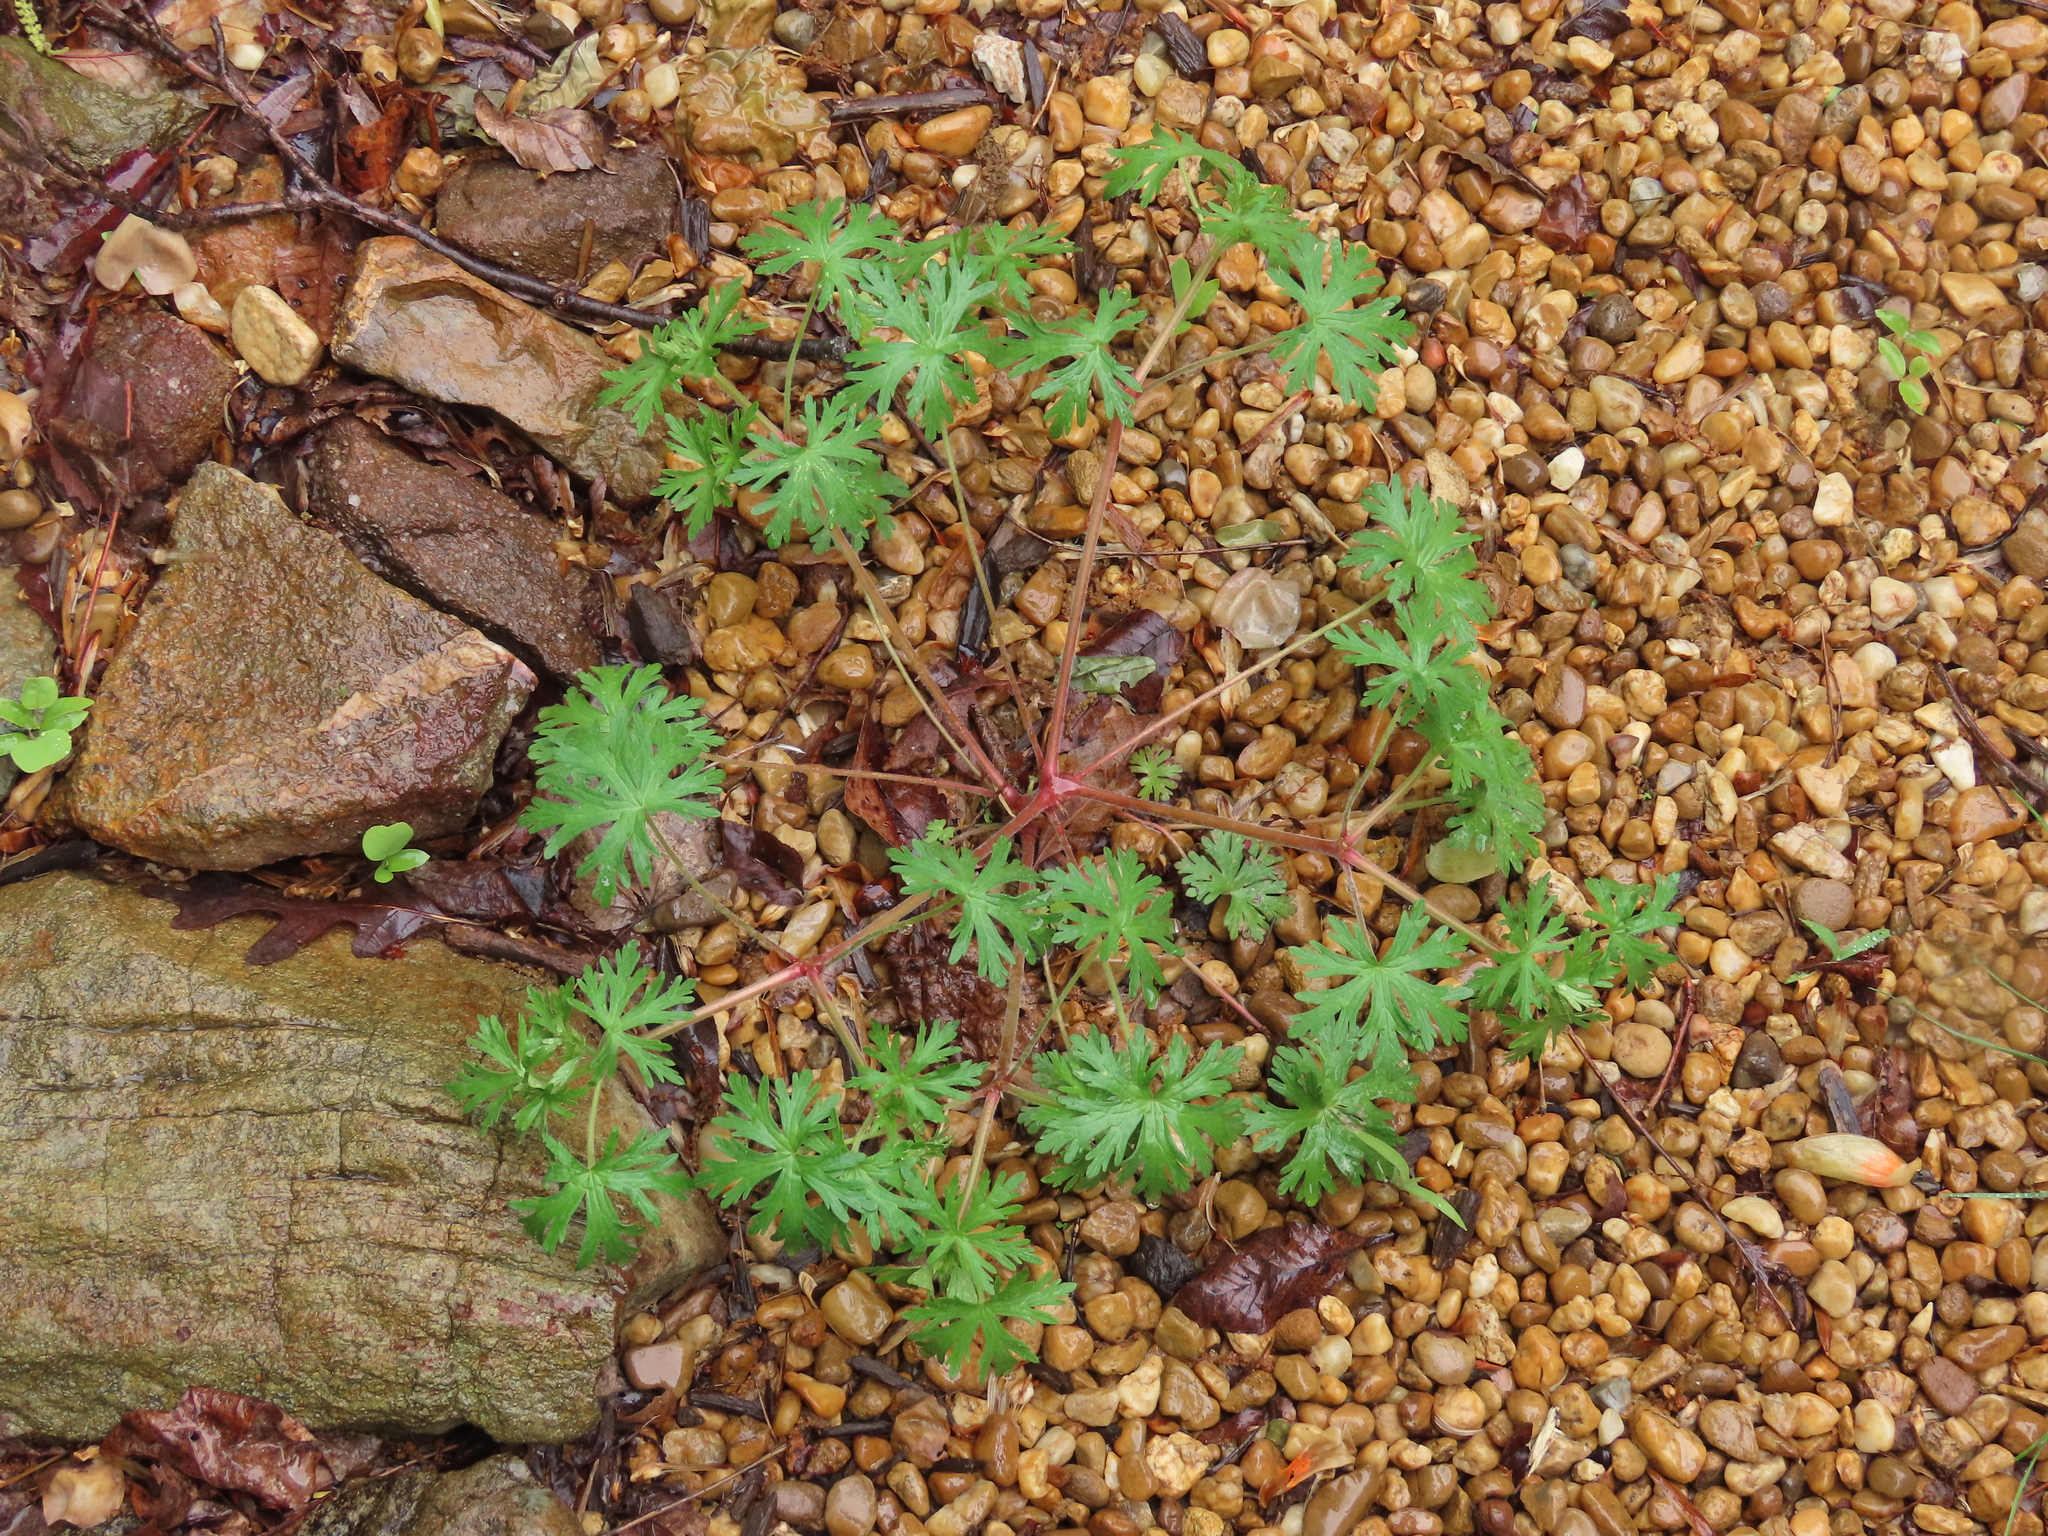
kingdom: Plantae
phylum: Tracheophyta
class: Magnoliopsida
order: Geraniales
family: Geraniaceae
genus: Geranium
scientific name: Geranium carolinianum
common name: Carolina crane's-bill
